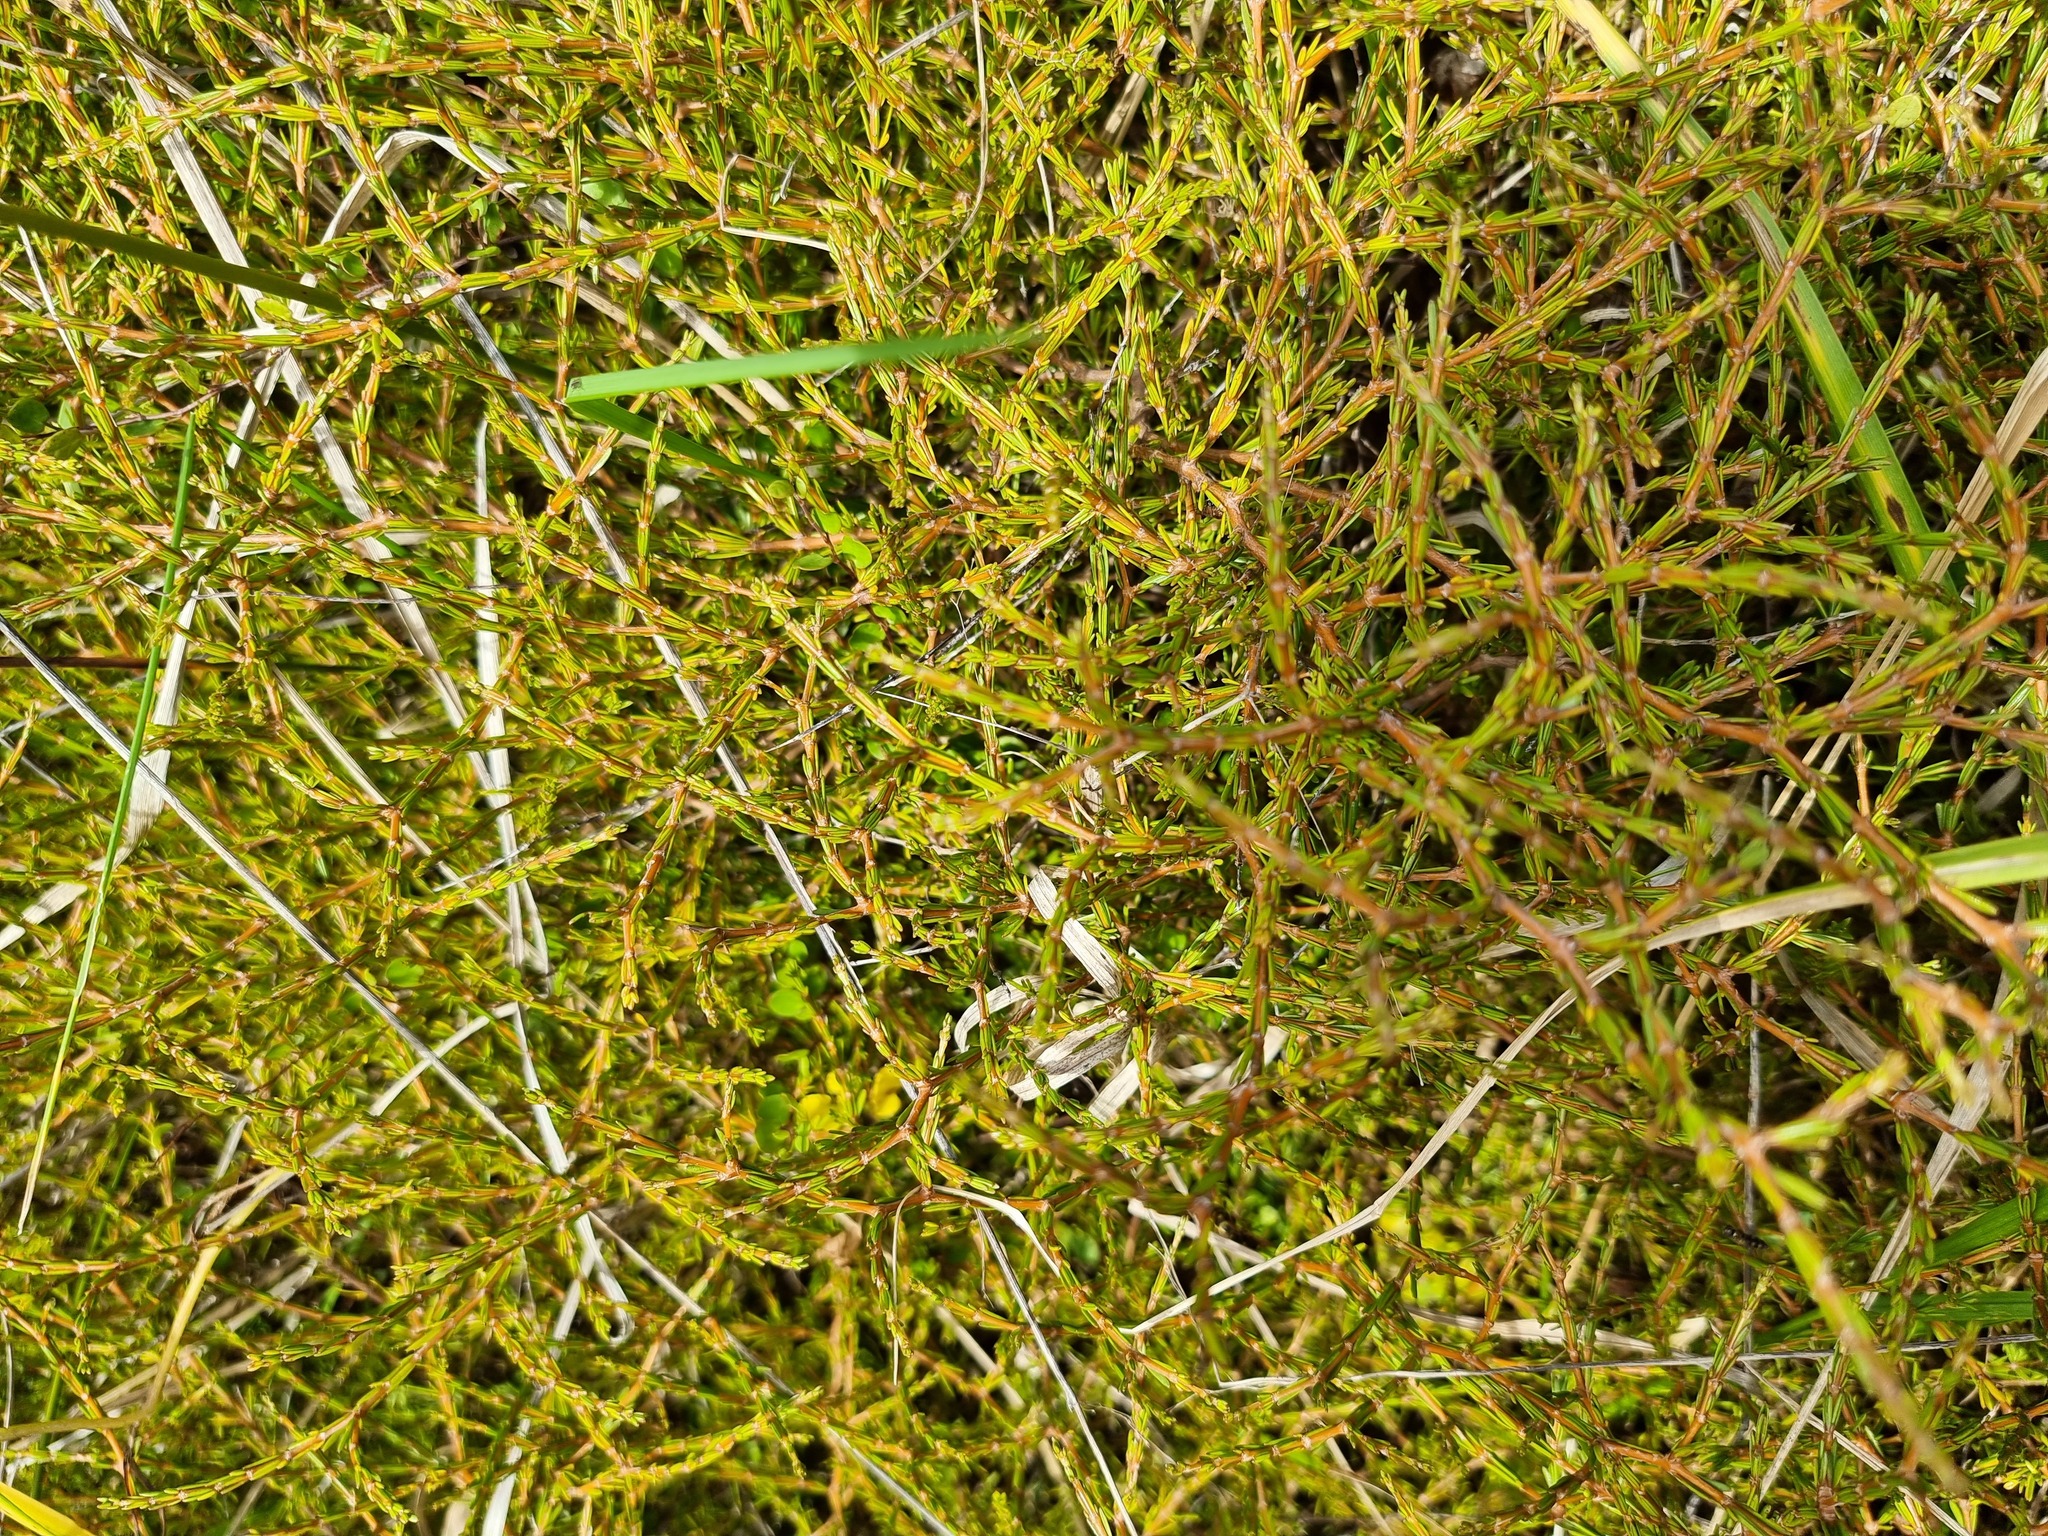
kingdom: Plantae
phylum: Tracheophyta
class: Magnoliopsida
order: Gentianales
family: Rubiaceae
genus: Coprosma
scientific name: Coprosma acerosa
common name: Sand coprosma
